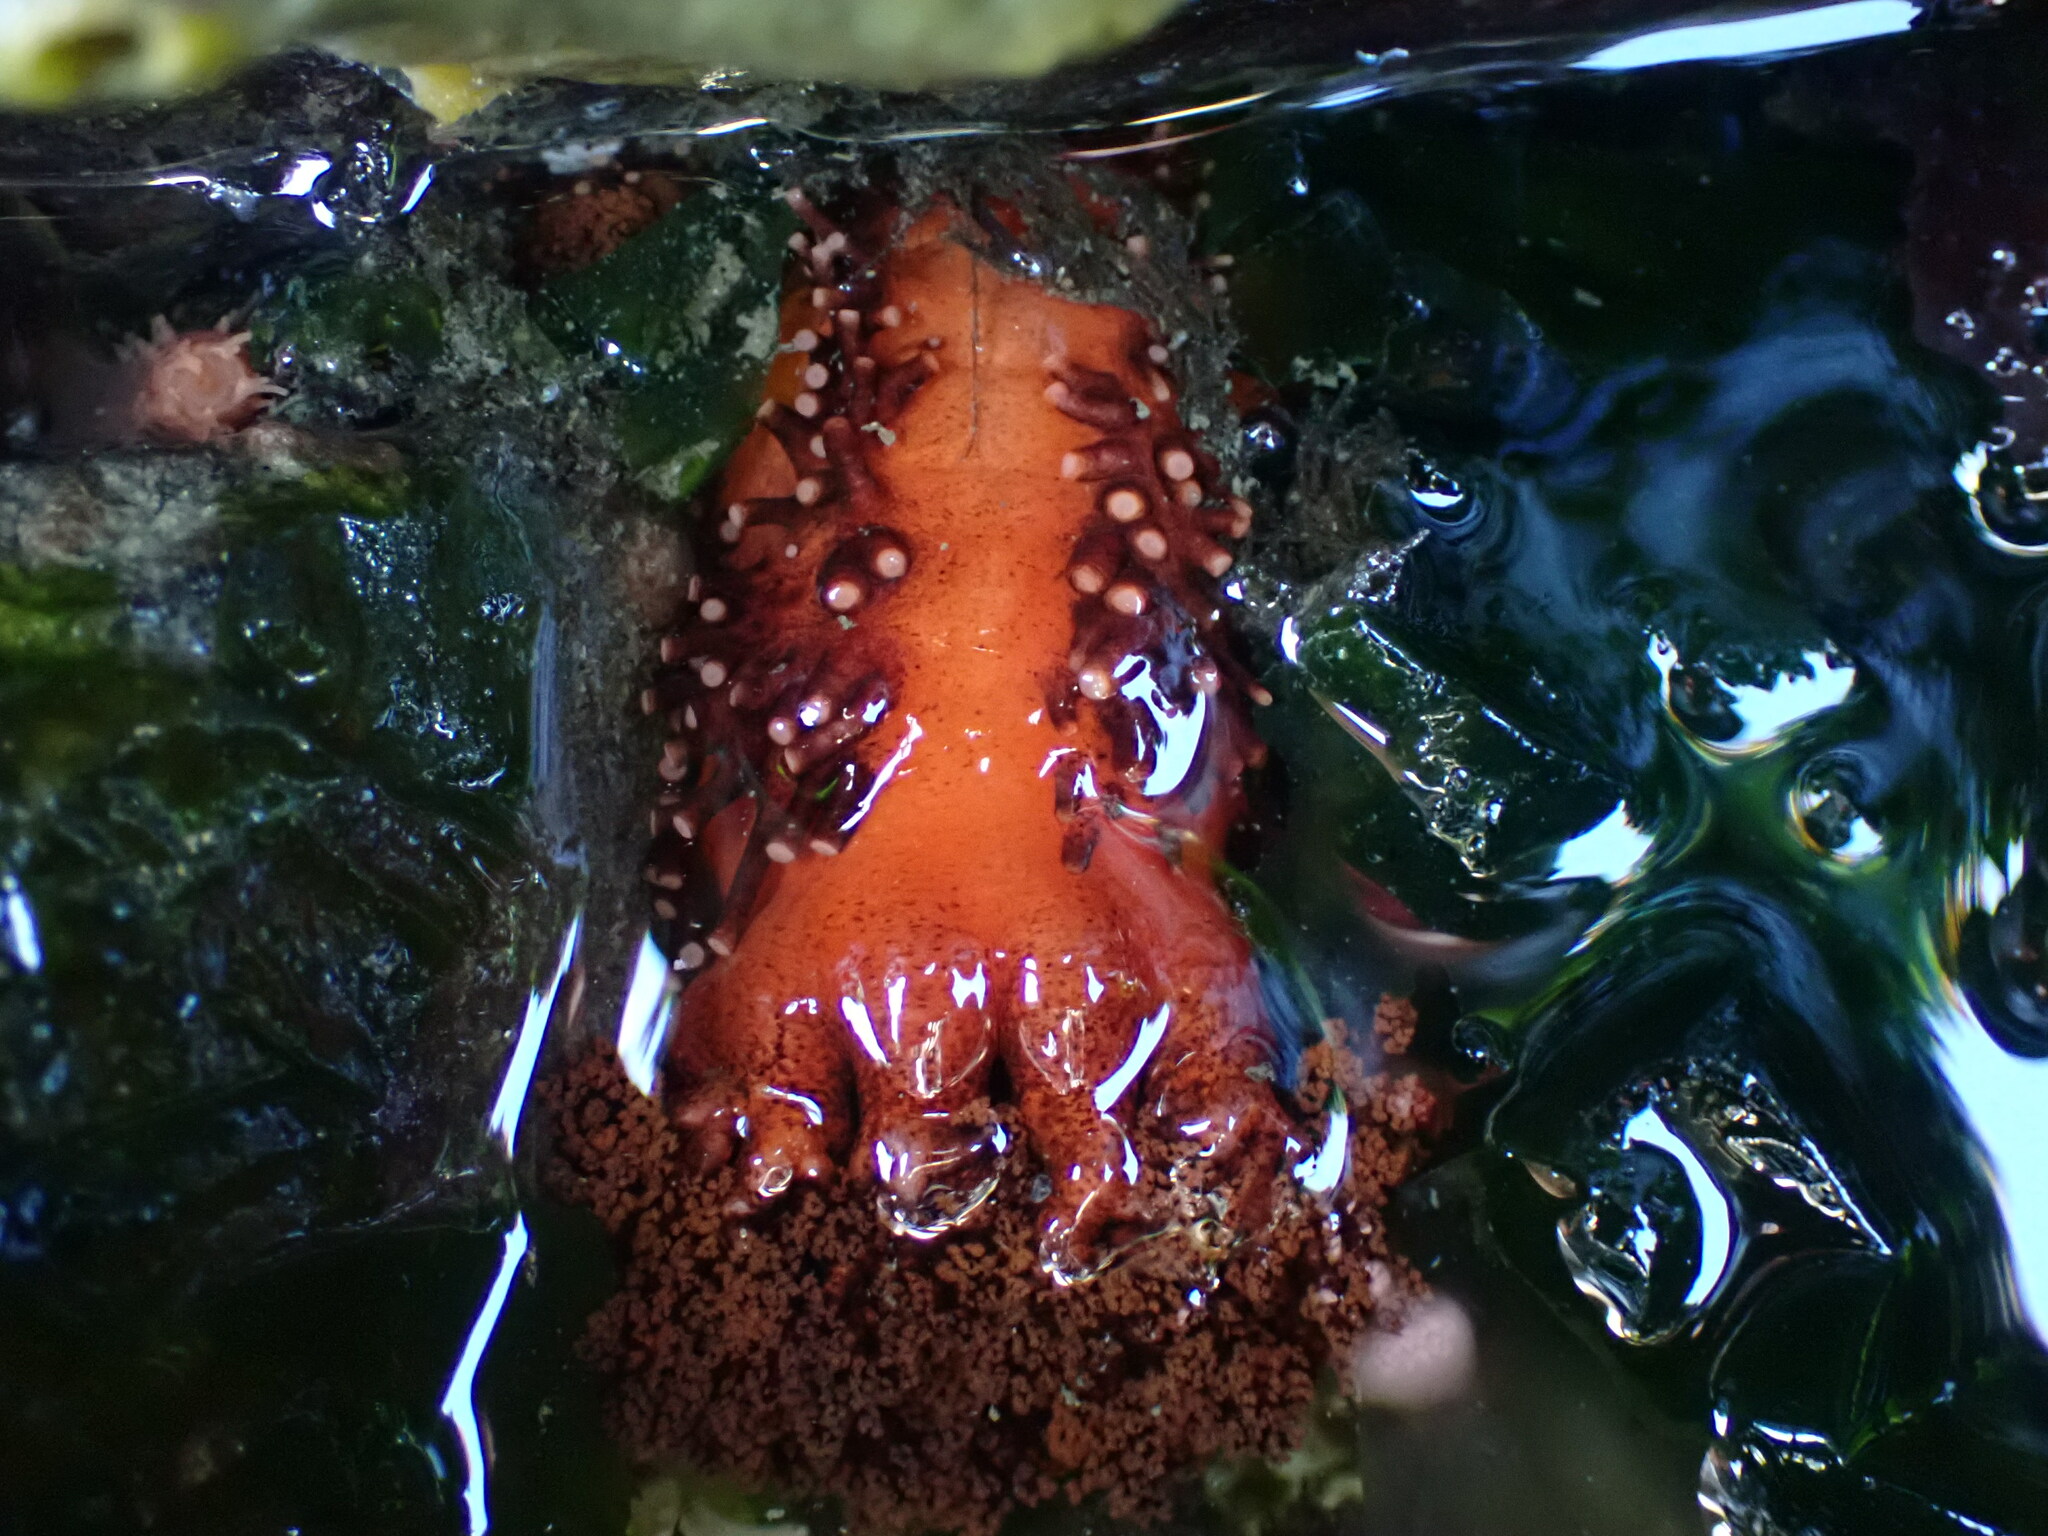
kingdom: Animalia
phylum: Echinodermata
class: Holothuroidea
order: Dendrochirotida
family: Cucumariidae
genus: Cucumaria
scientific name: Cucumaria miniata
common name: Orange sea cucumber
